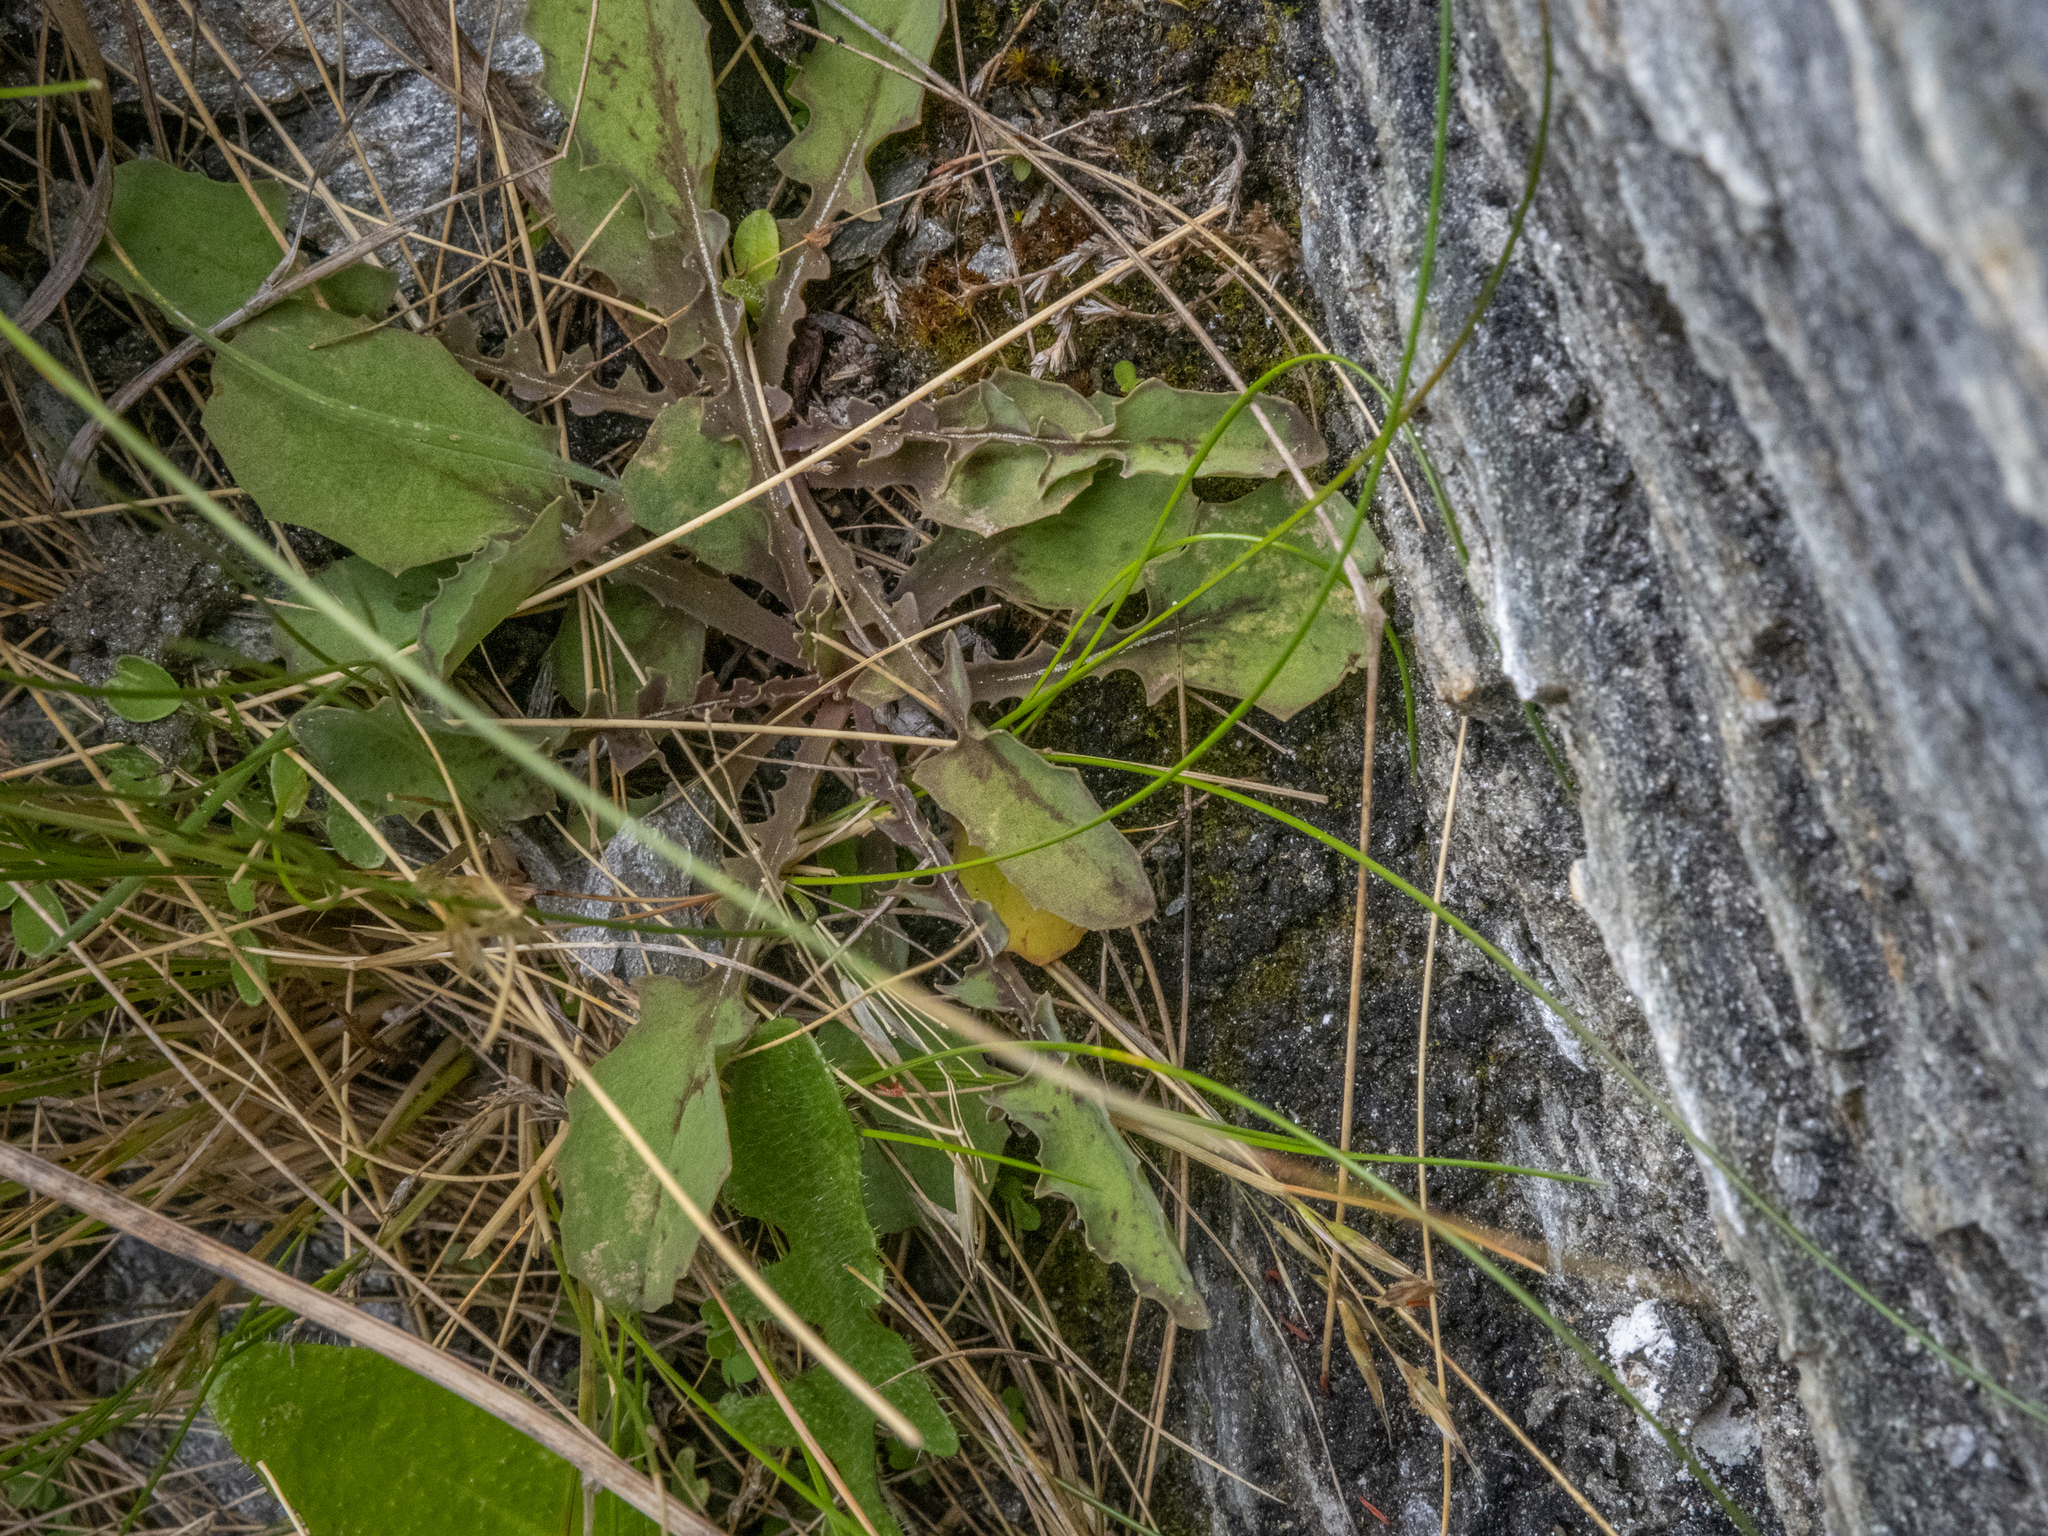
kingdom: Plantae
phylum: Tracheophyta
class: Magnoliopsida
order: Asterales
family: Asteraceae
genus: Sonchus
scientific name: Sonchus novae-zelandiae
